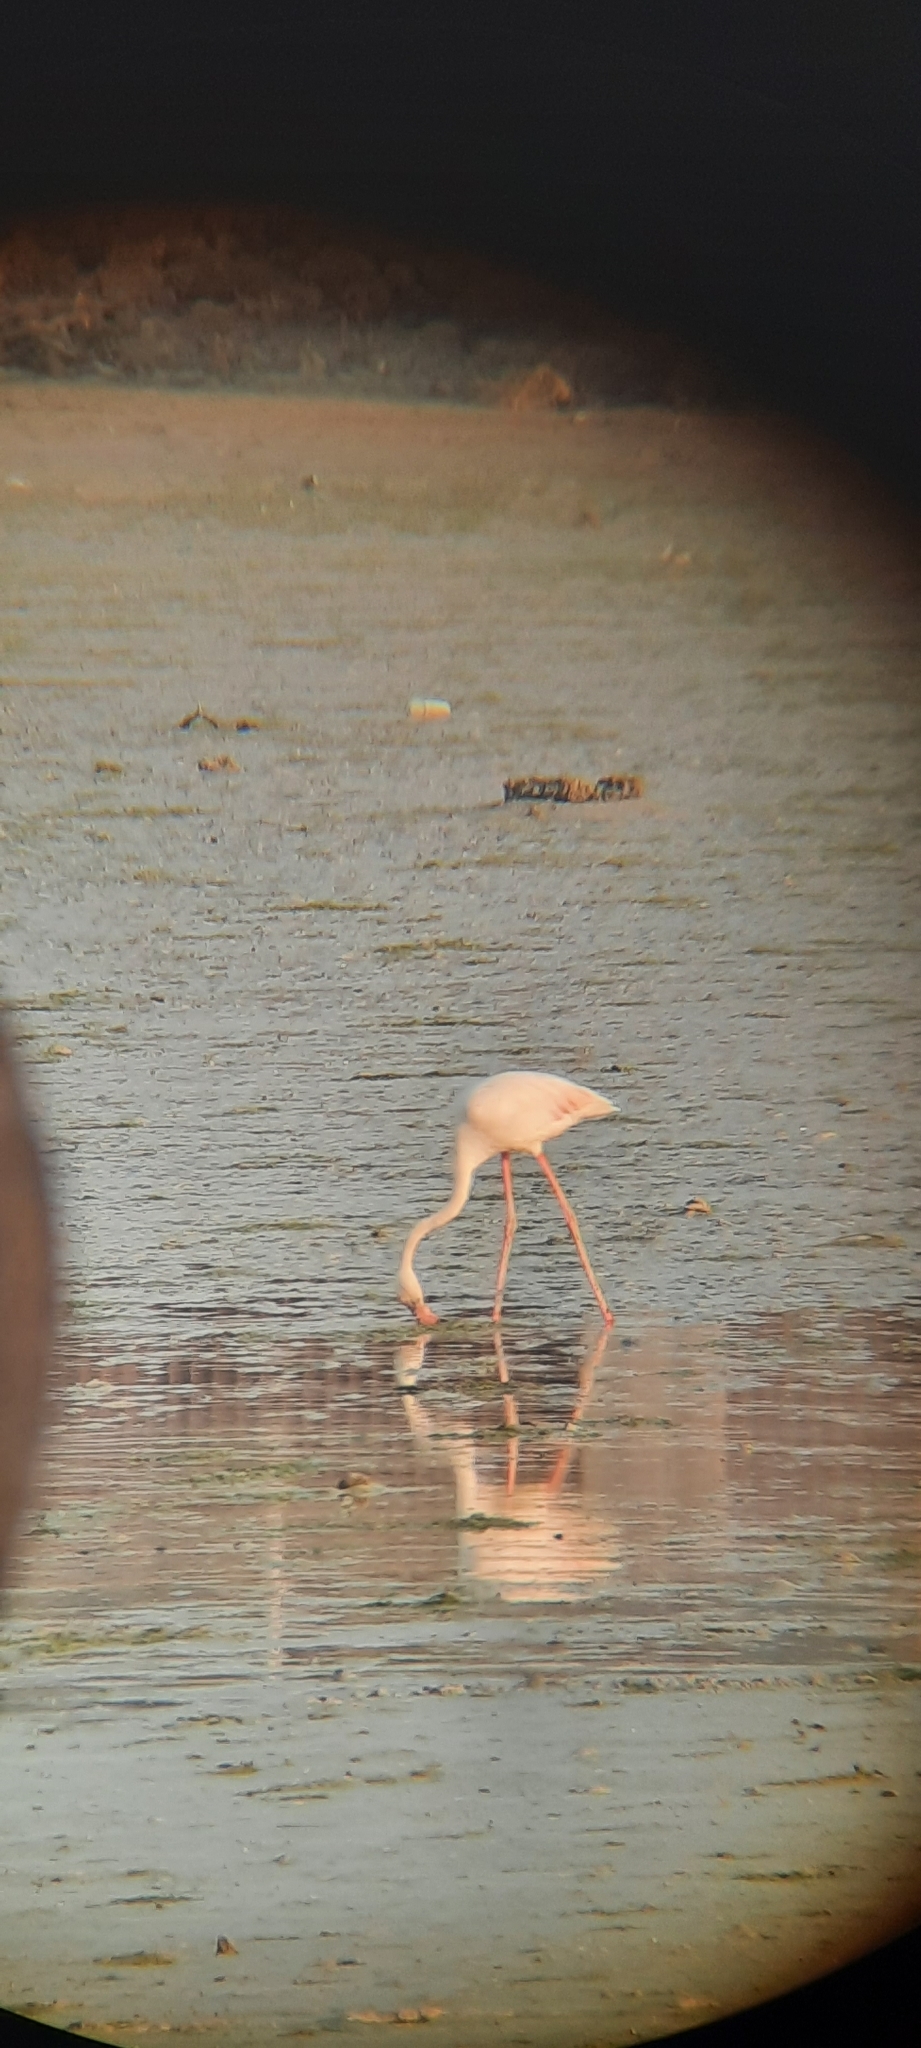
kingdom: Animalia
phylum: Chordata
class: Aves
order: Phoenicopteriformes
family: Phoenicopteridae
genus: Phoenicopterus
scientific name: Phoenicopterus roseus
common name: Greater flamingo
